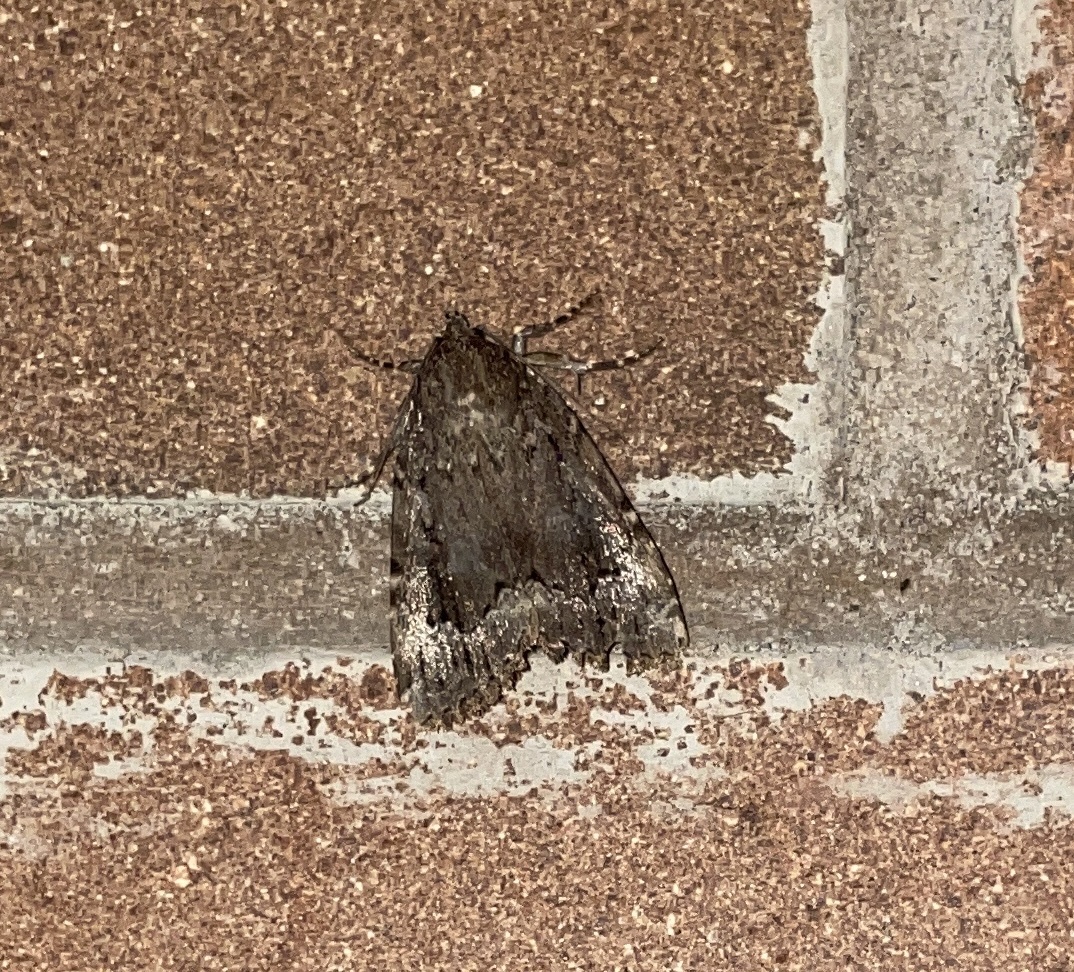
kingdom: Animalia
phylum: Arthropoda
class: Insecta
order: Lepidoptera
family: Noctuidae
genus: Amphipyra
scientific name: Amphipyra pyramidoides
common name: American copper underwing
